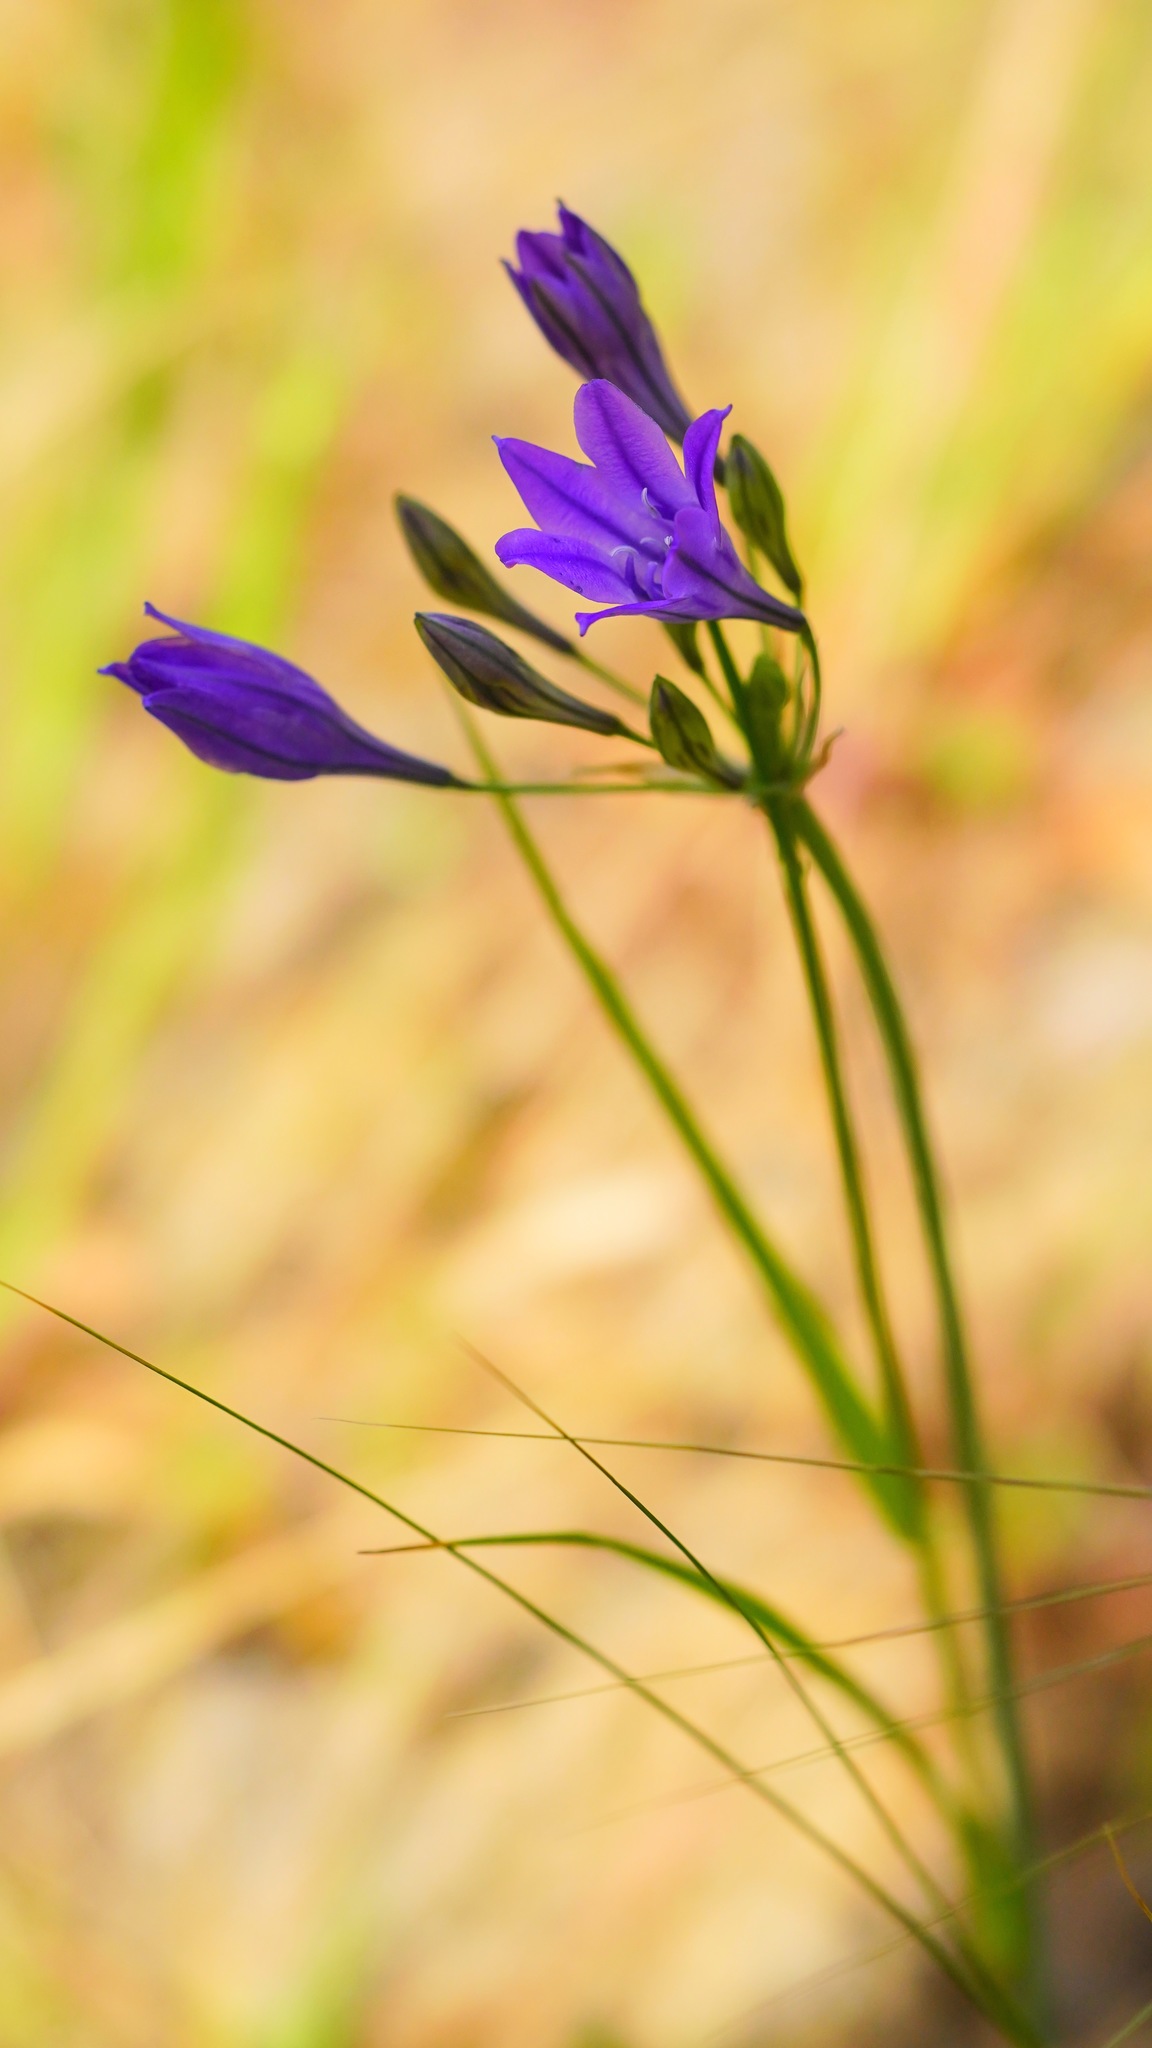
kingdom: Plantae
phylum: Tracheophyta
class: Liliopsida
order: Asparagales
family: Asparagaceae
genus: Triteleia
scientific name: Triteleia laxa
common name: Triplet-lily
